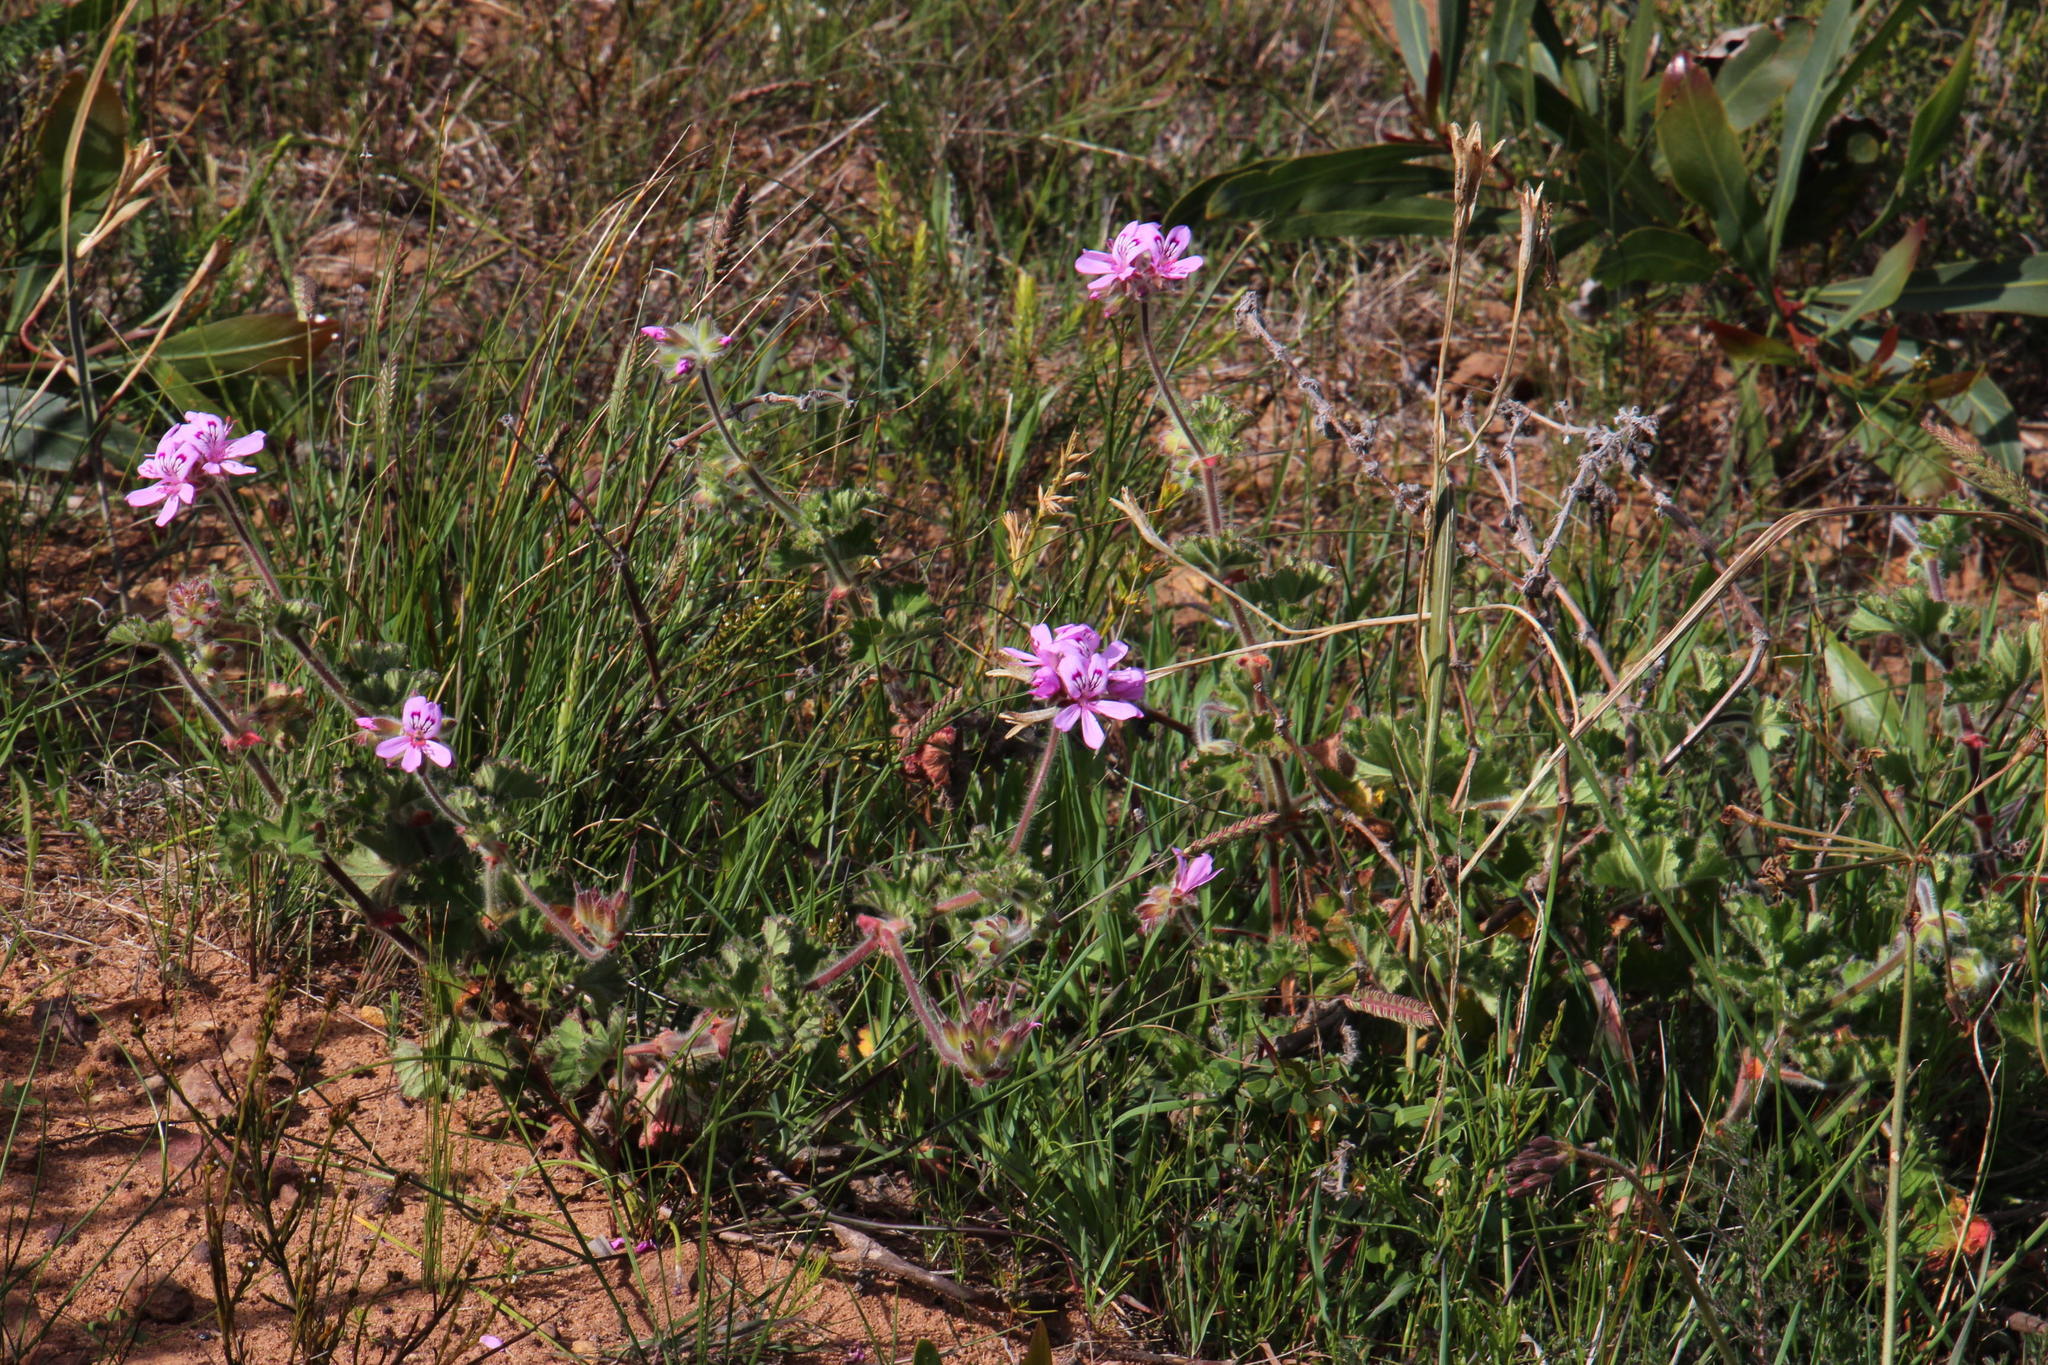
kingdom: Plantae
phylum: Tracheophyta
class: Magnoliopsida
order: Geraniales
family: Geraniaceae
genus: Pelargonium
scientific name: Pelargonium capitatum
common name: Rose scented geranium
